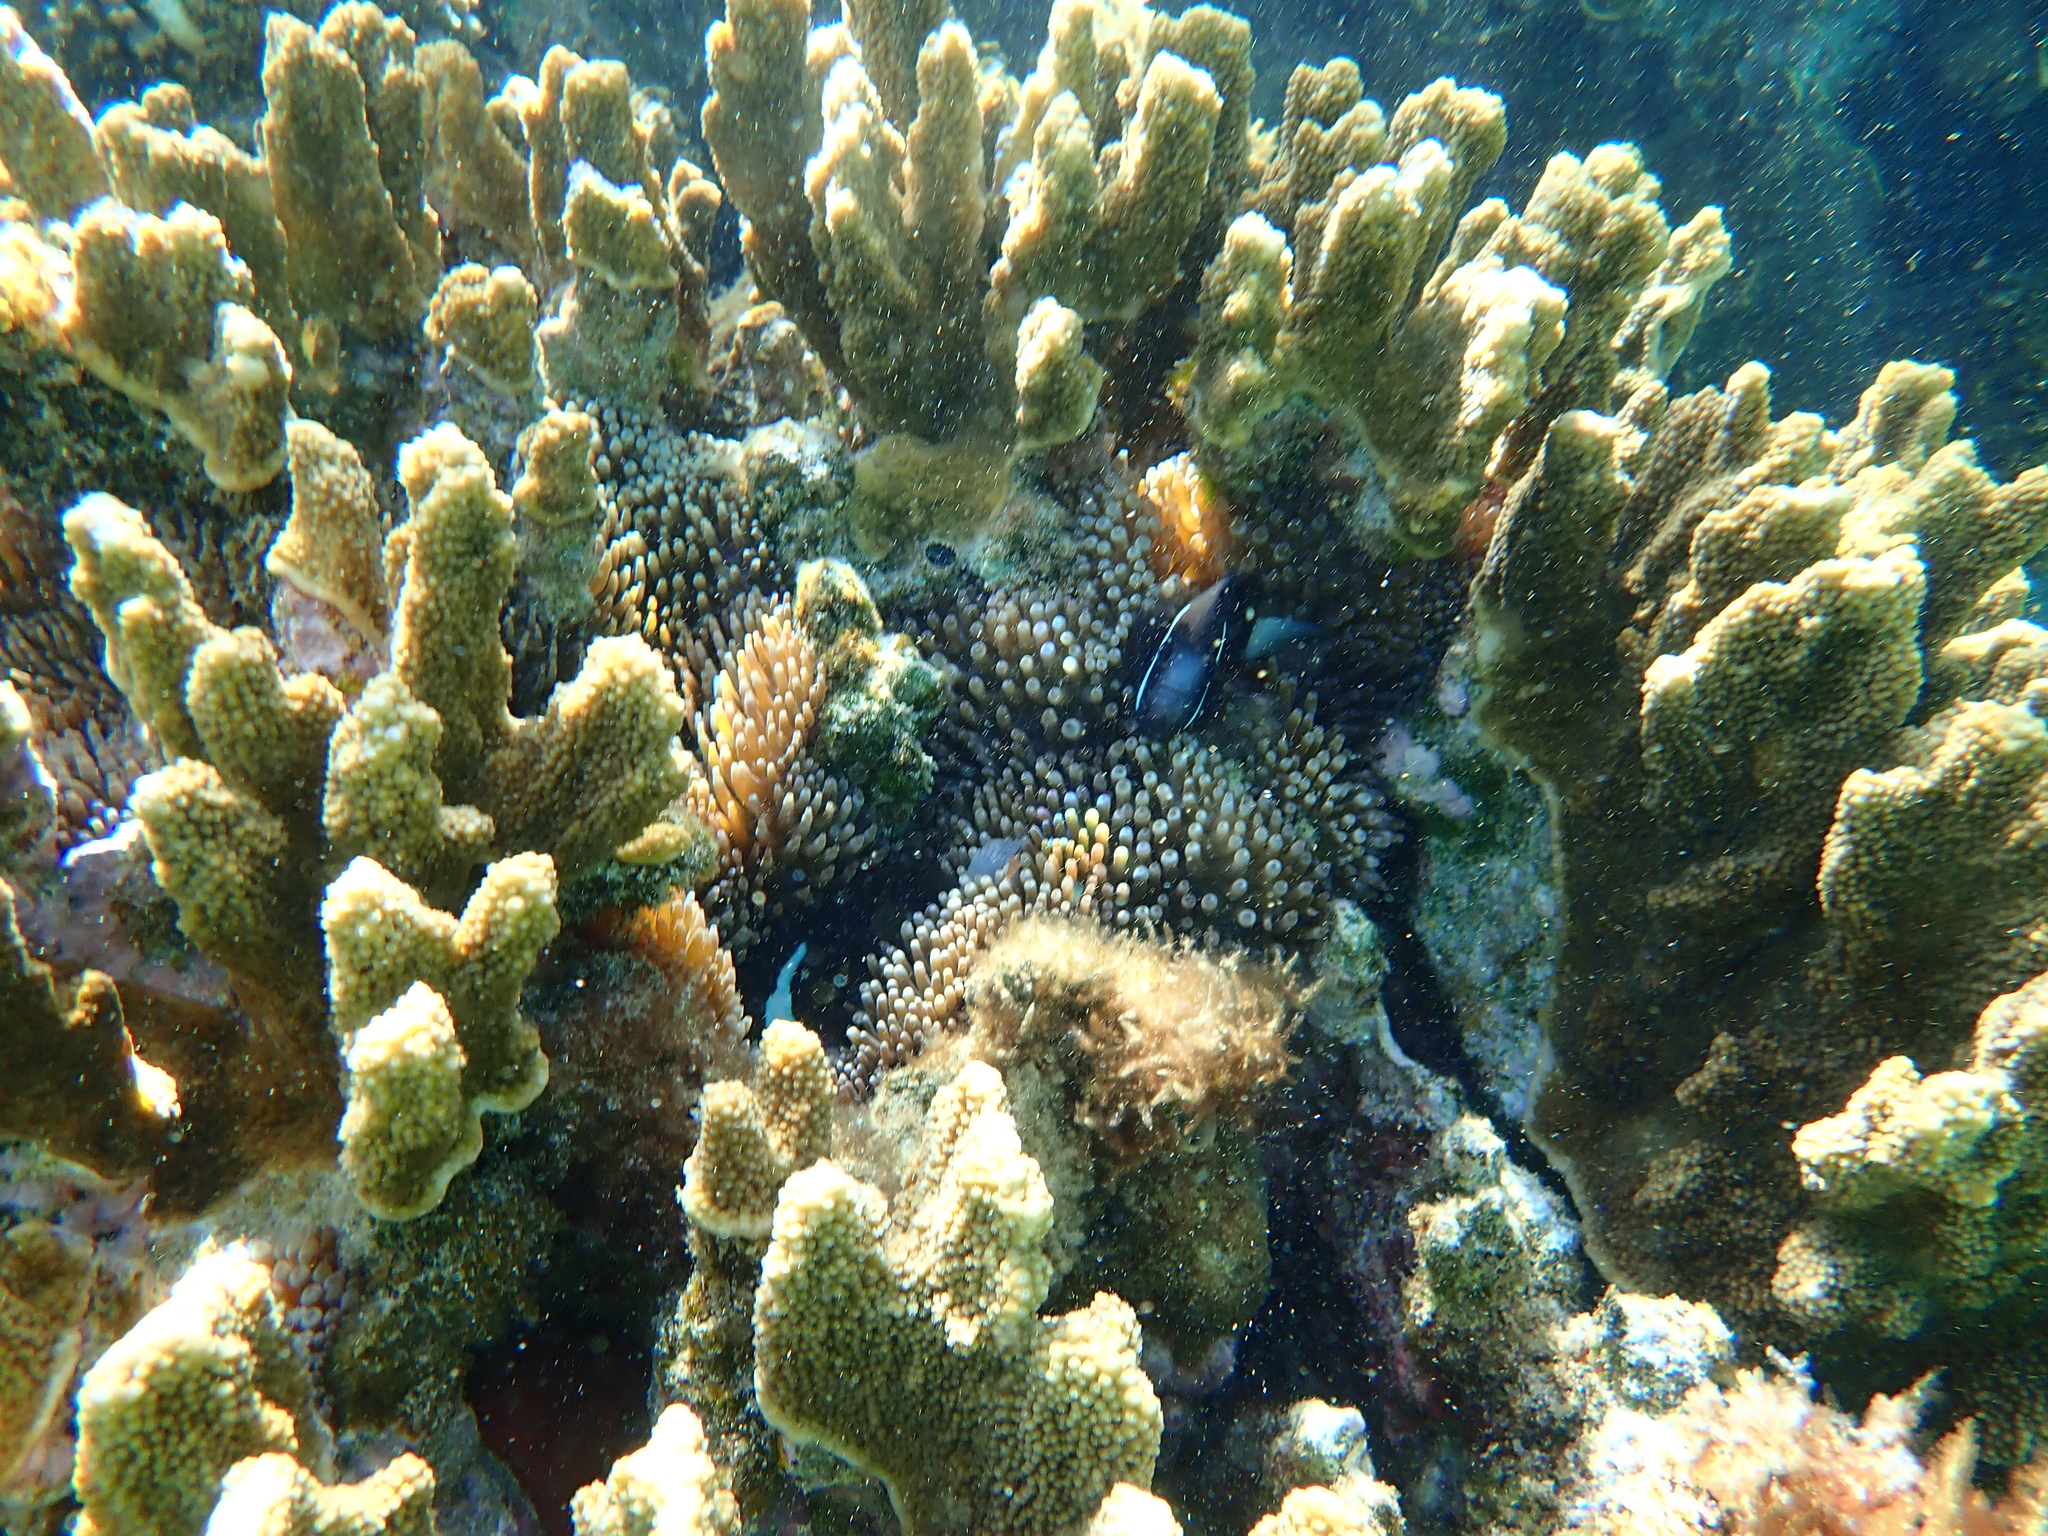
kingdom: Animalia
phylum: Cnidaria
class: Anthozoa
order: Actiniaria
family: Actiniidae
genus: Entacmaea
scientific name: Entacmaea quadricolor
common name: Bulb tentacle sea anemone
